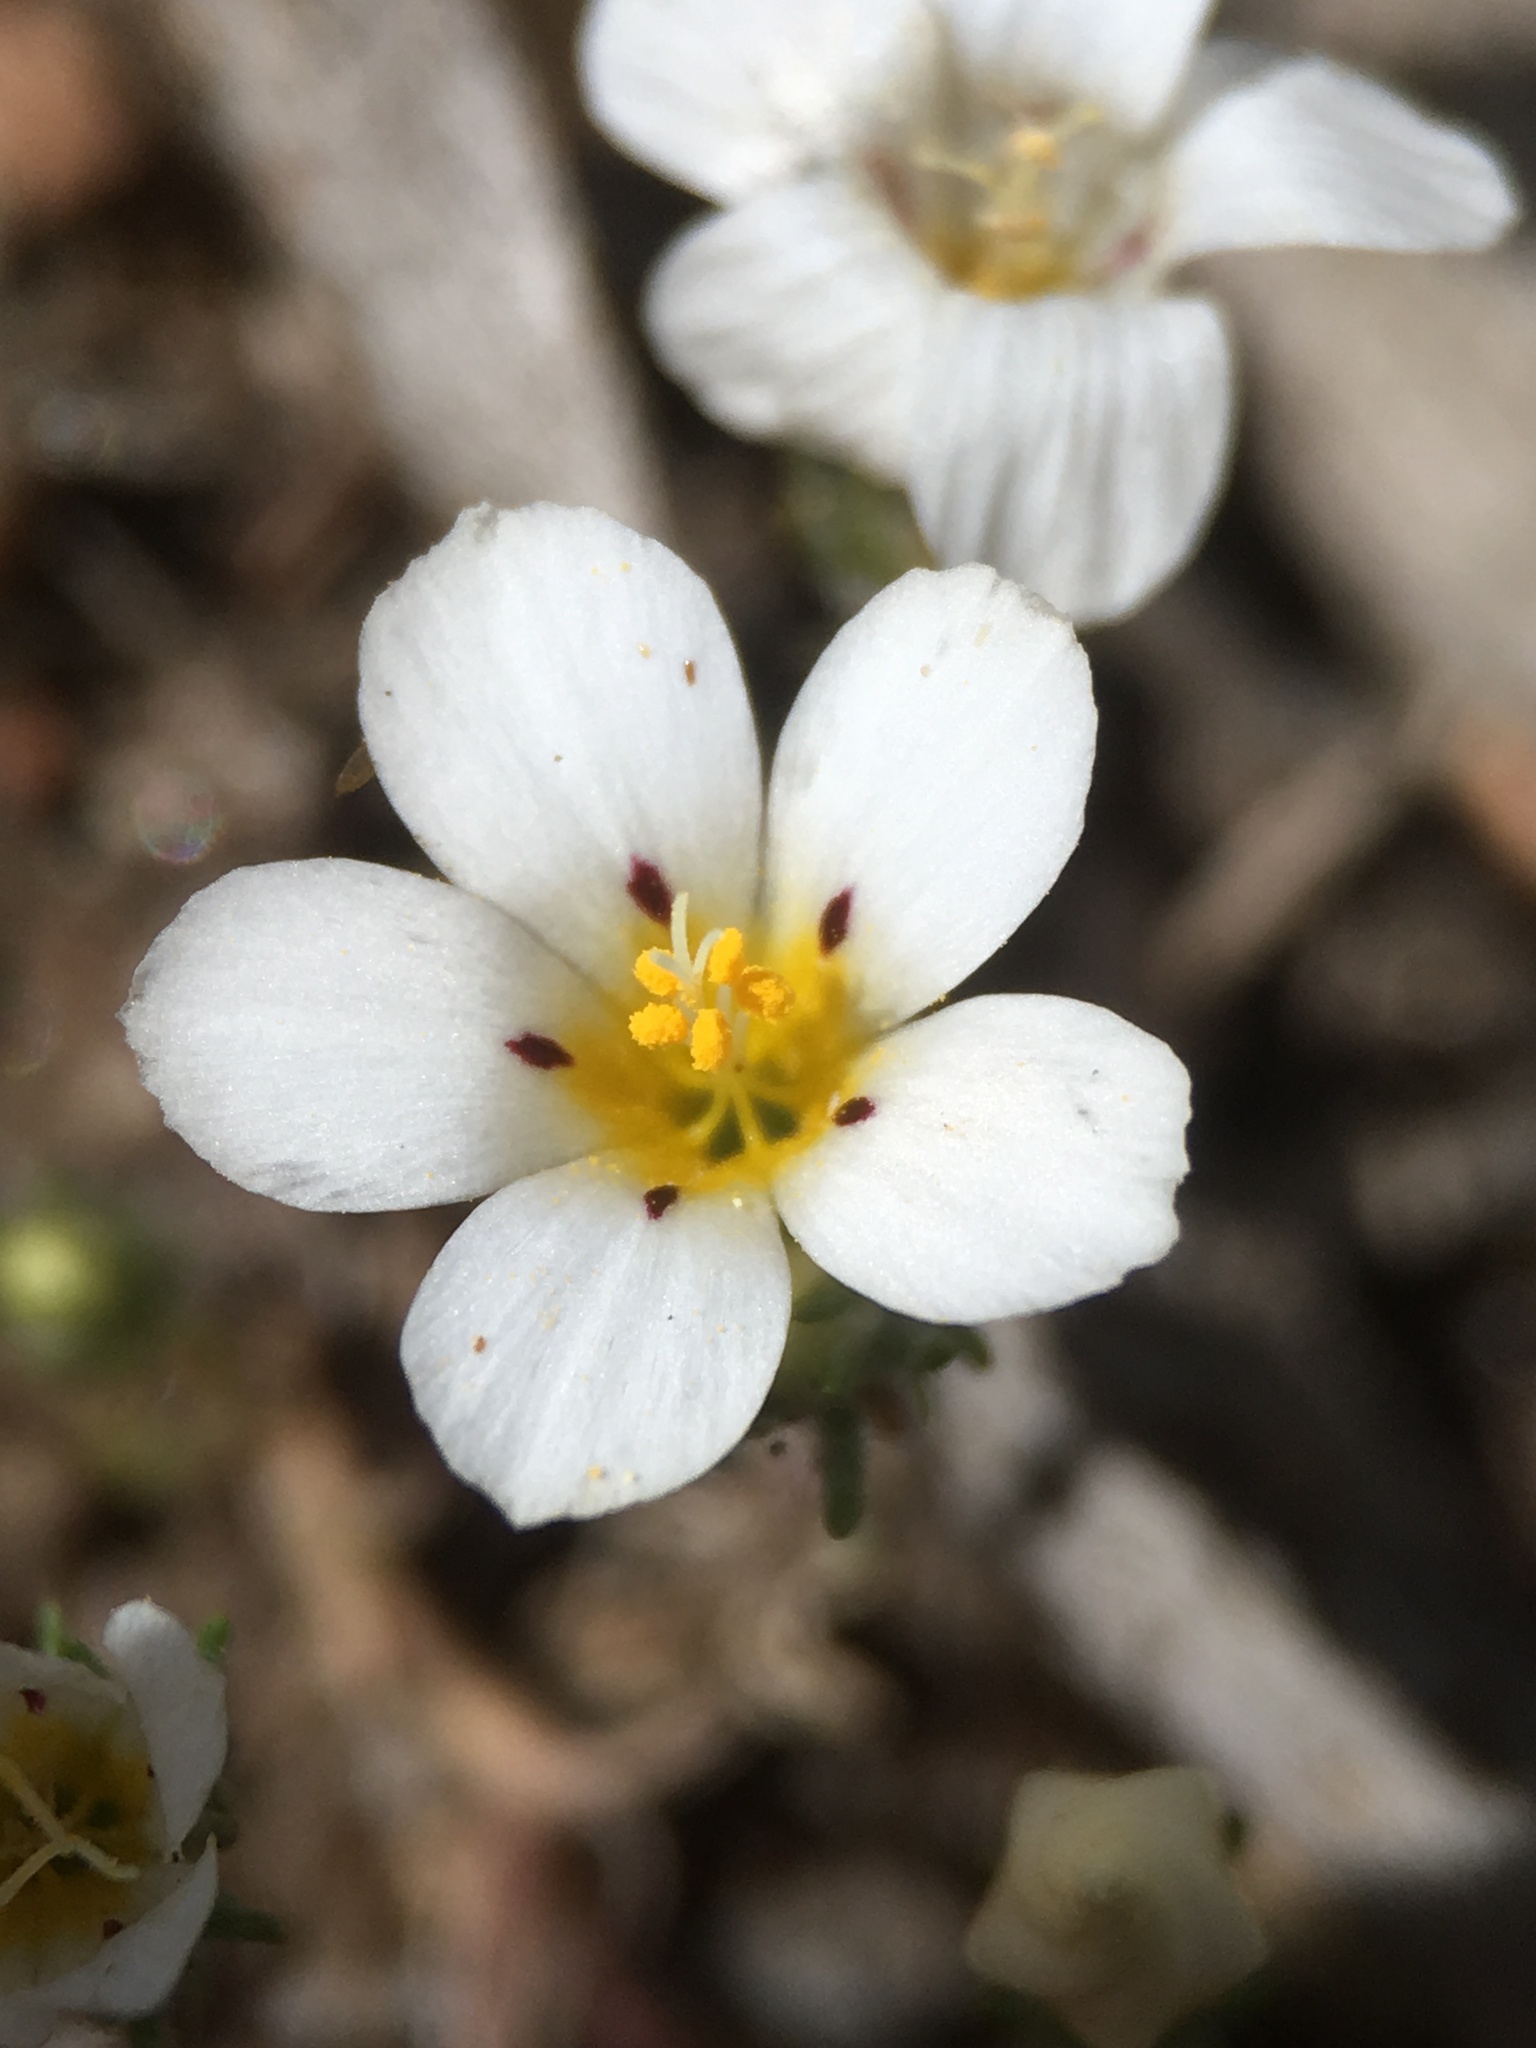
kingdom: Plantae
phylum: Tracheophyta
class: Magnoliopsida
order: Ericales
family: Polemoniaceae
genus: Linanthus
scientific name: Linanthus killipii
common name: Baldwin lake linanthus
